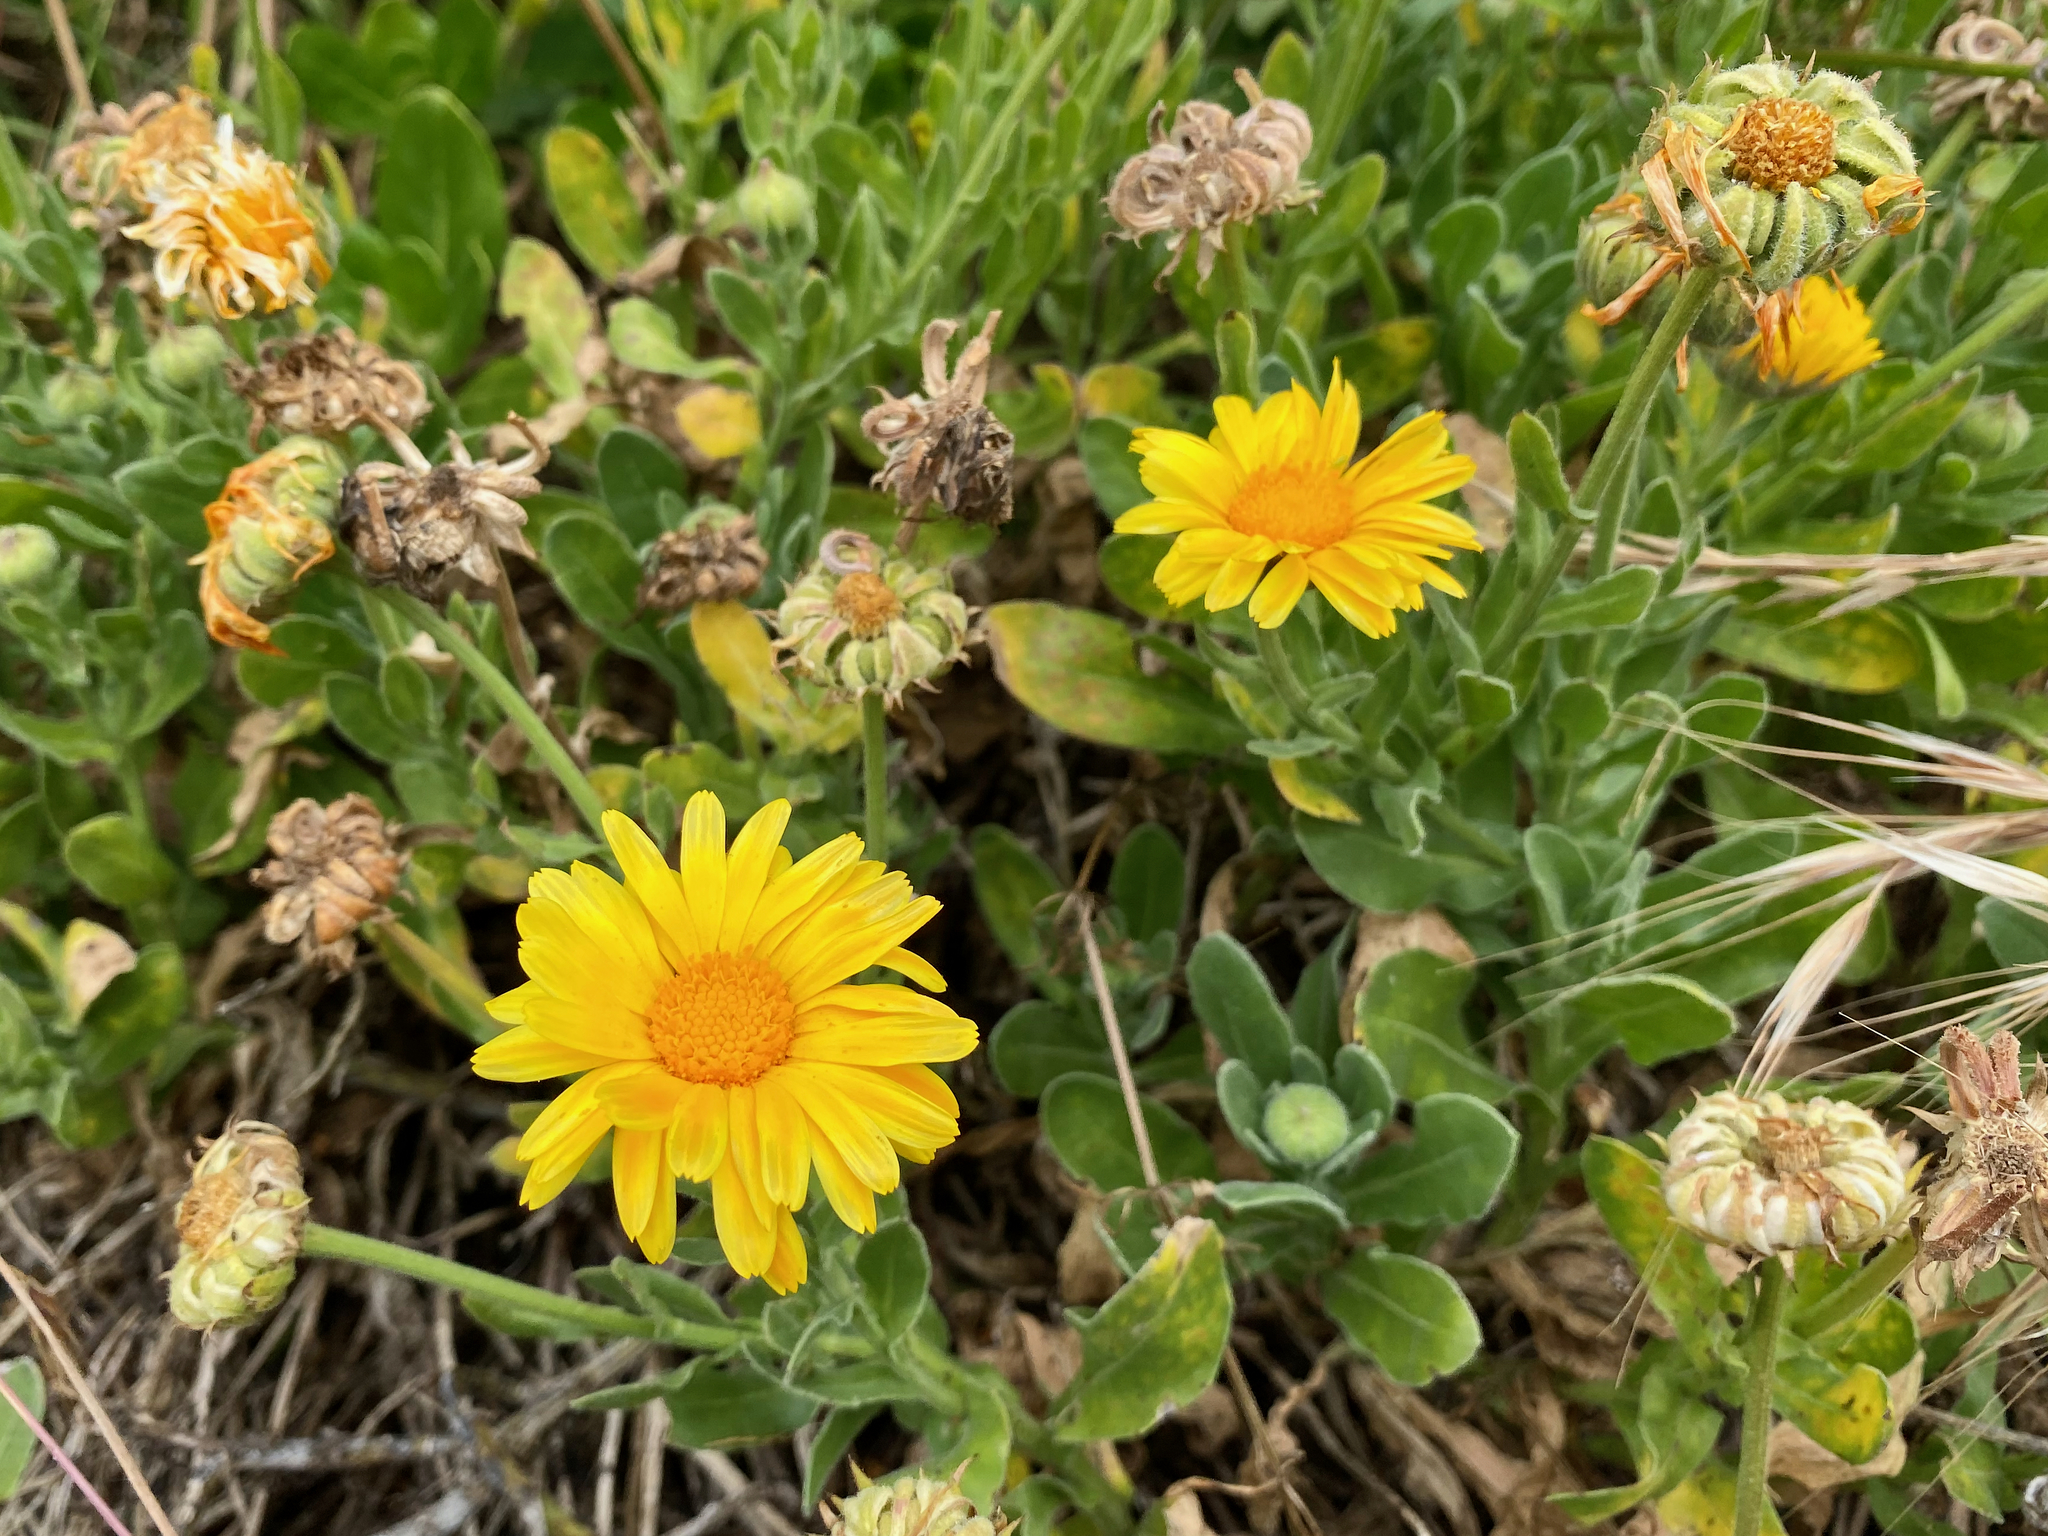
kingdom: Plantae
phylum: Tracheophyta
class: Magnoliopsida
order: Asterales
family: Asteraceae
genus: Calendula
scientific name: Calendula officinalis
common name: Pot marigold
